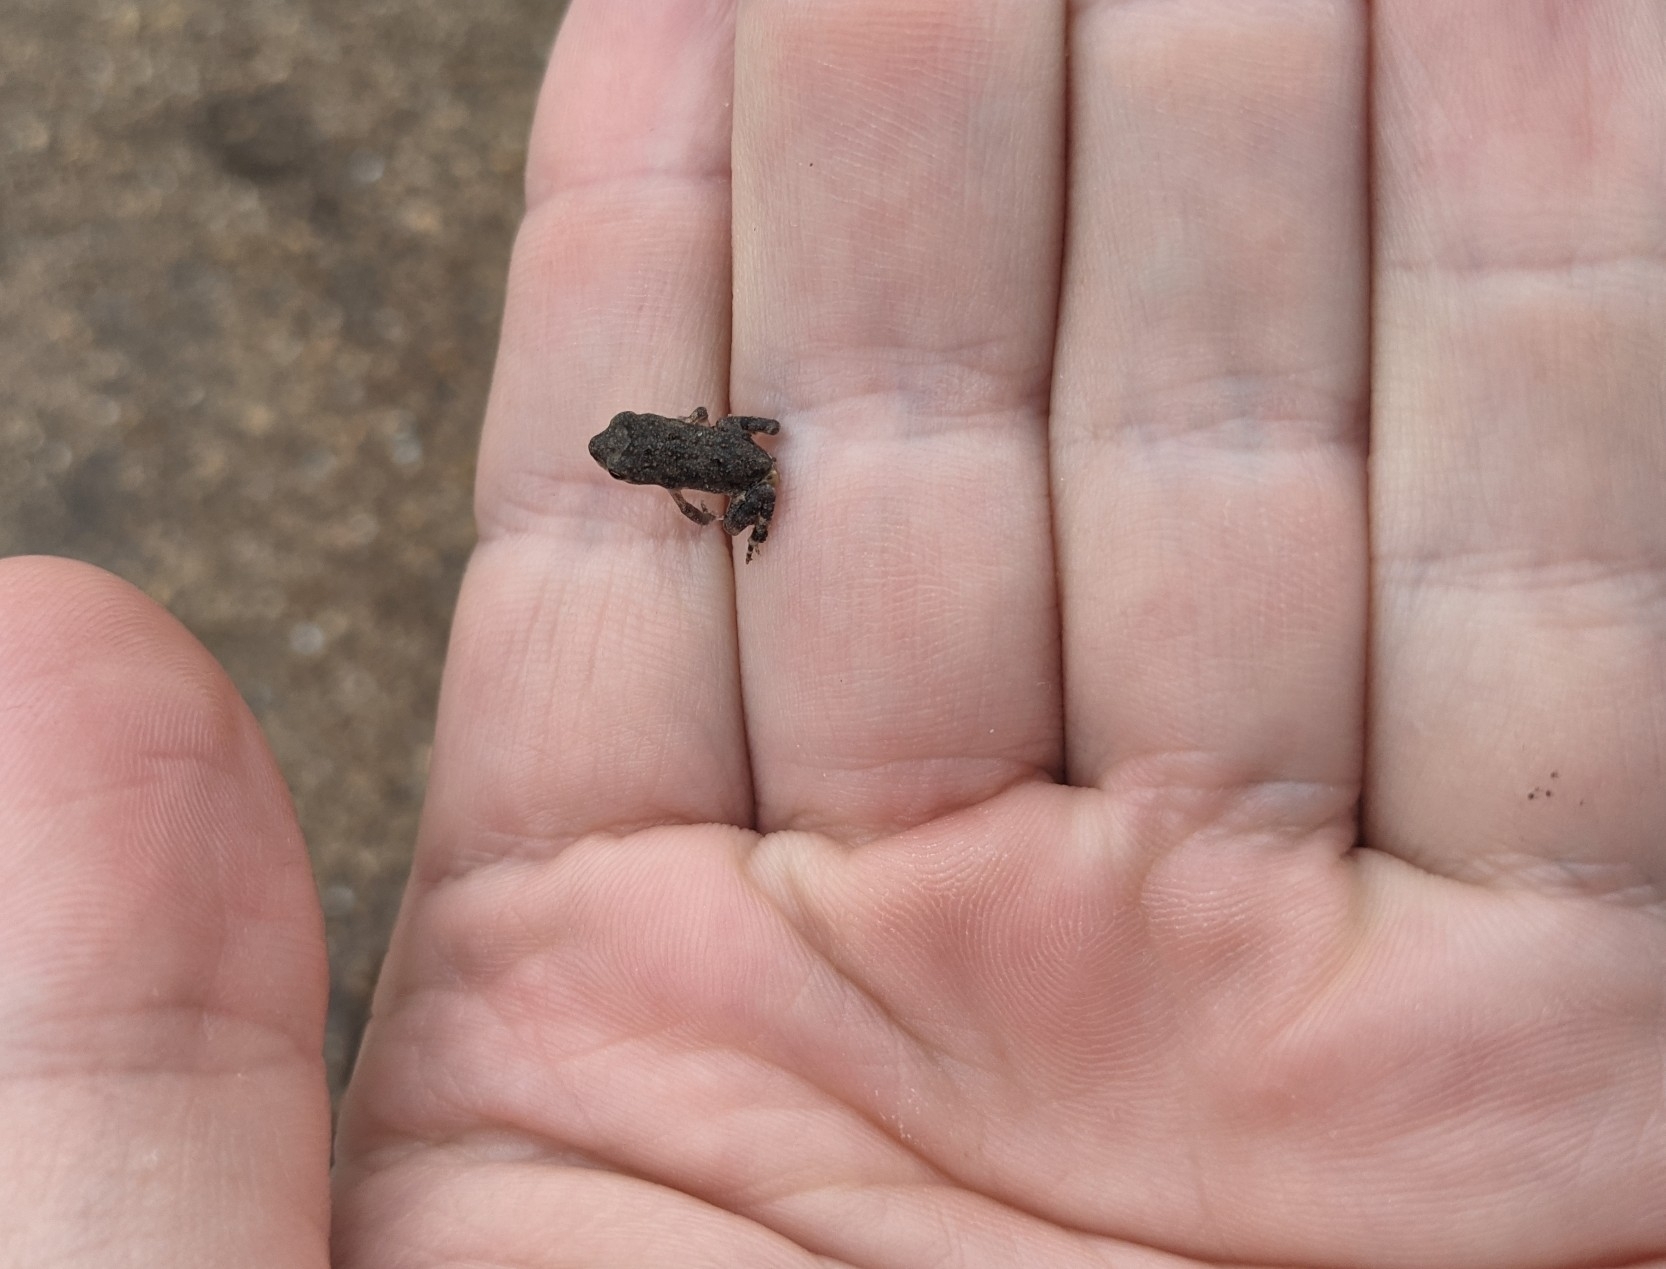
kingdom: Animalia
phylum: Chordata
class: Amphibia
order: Anura
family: Bufonidae
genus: Incilius
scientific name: Incilius nebulifer
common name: Gulf coast toad
